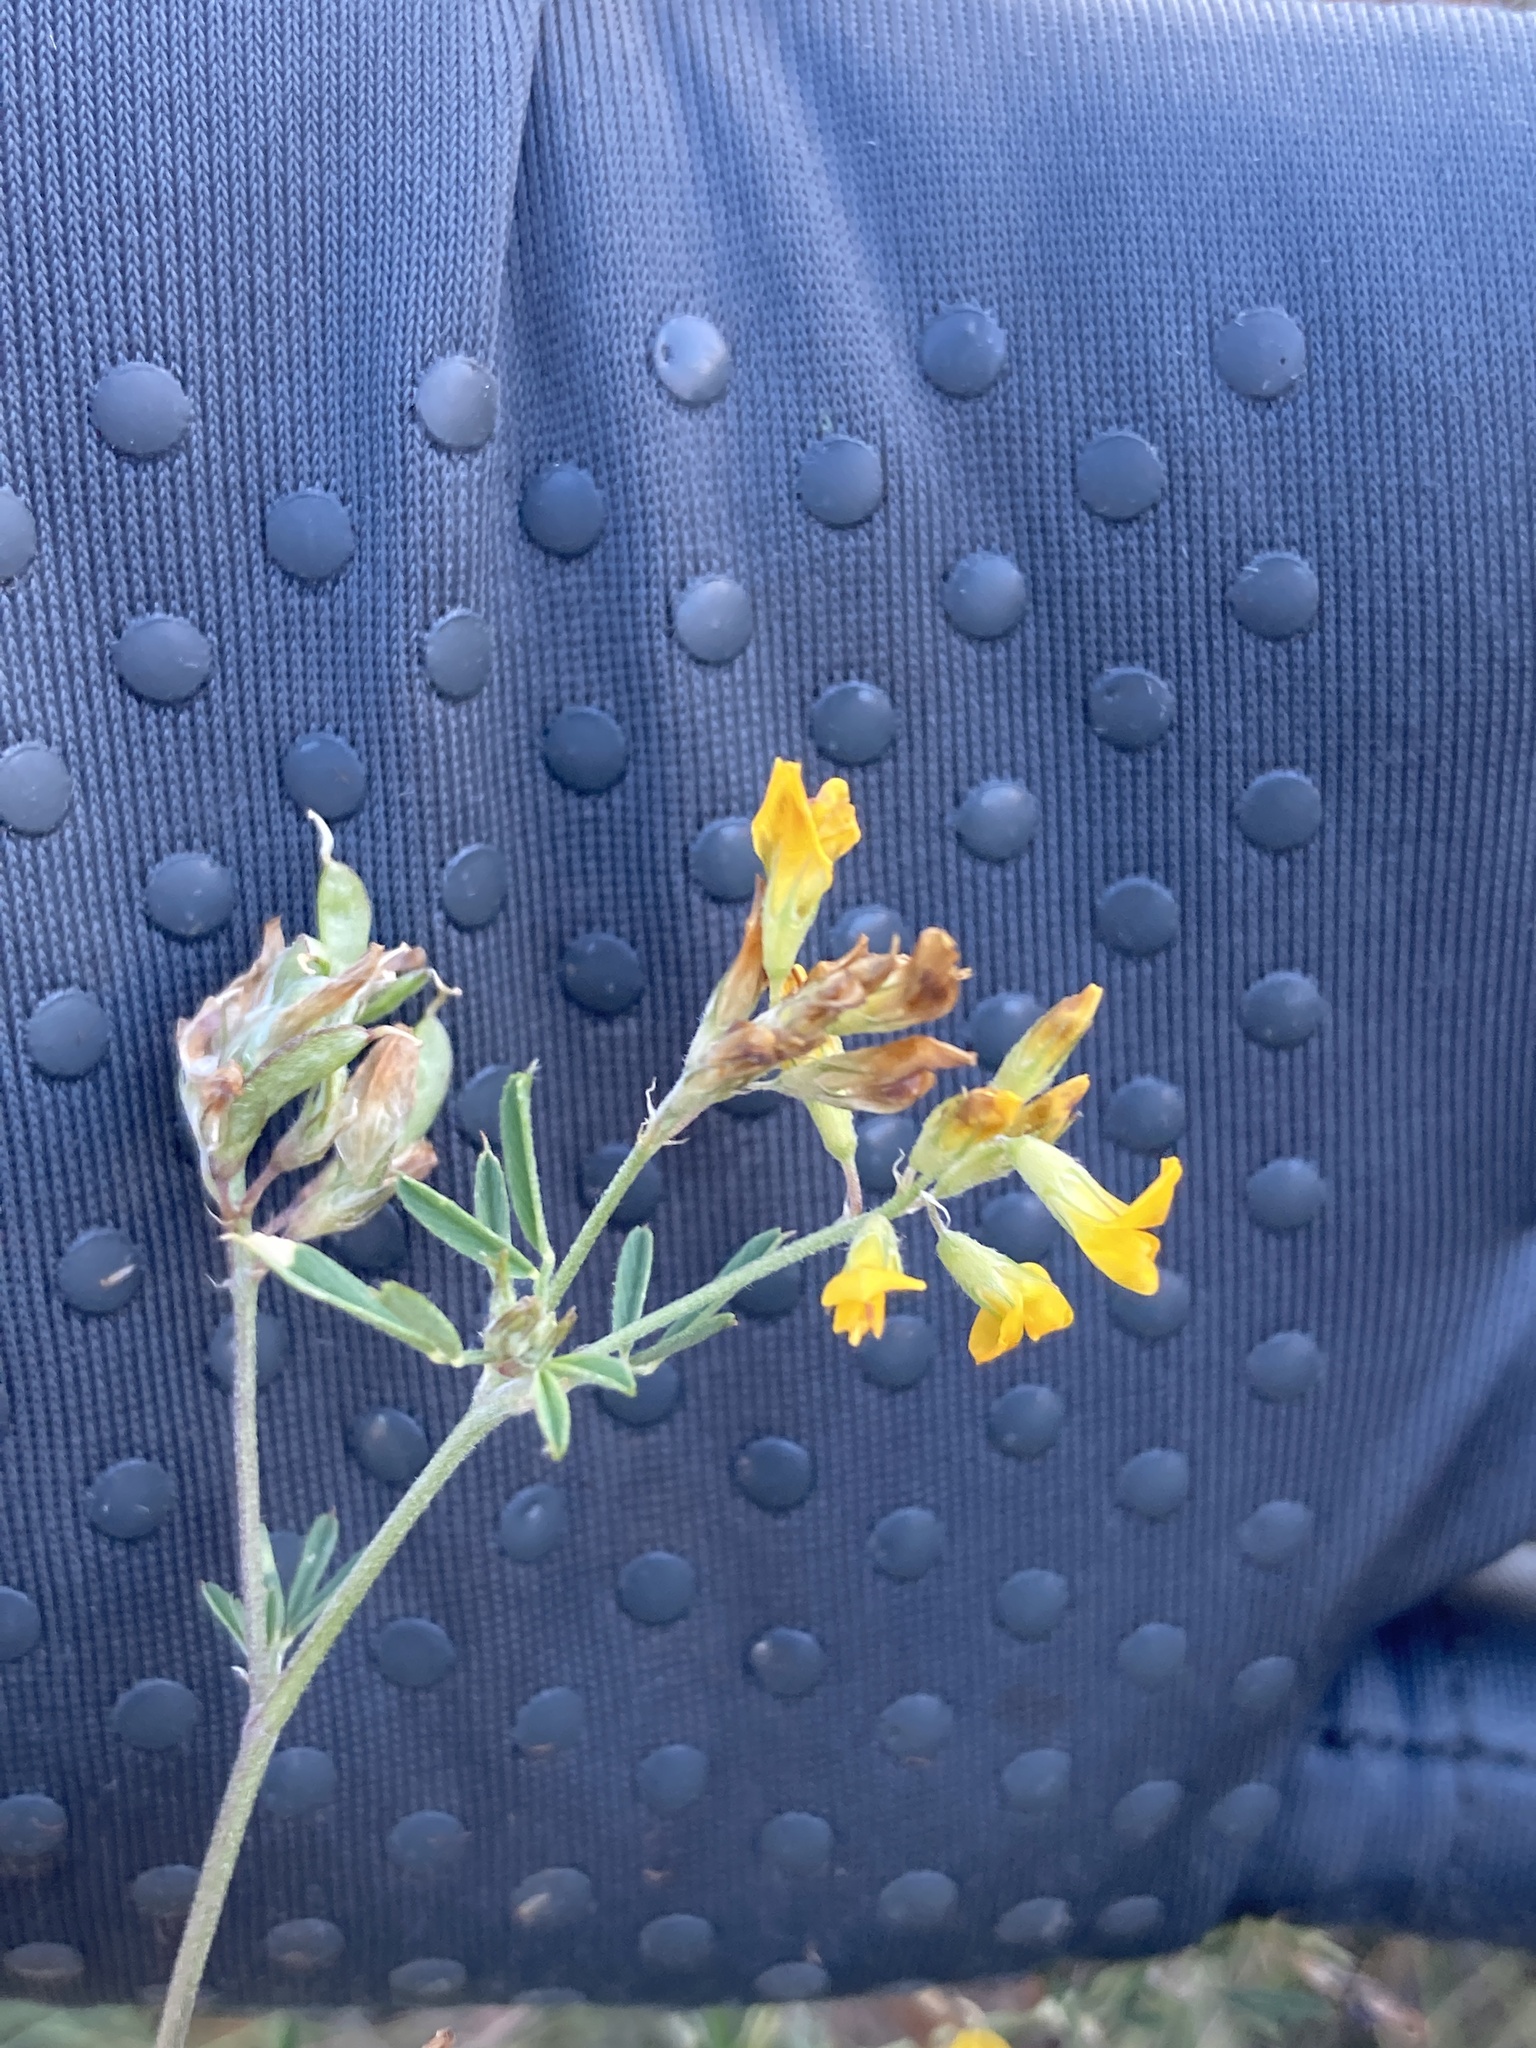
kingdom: Plantae
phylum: Tracheophyta
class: Magnoliopsida
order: Fabales
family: Fabaceae
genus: Medicago
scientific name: Medicago falcata
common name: Sickle medick
